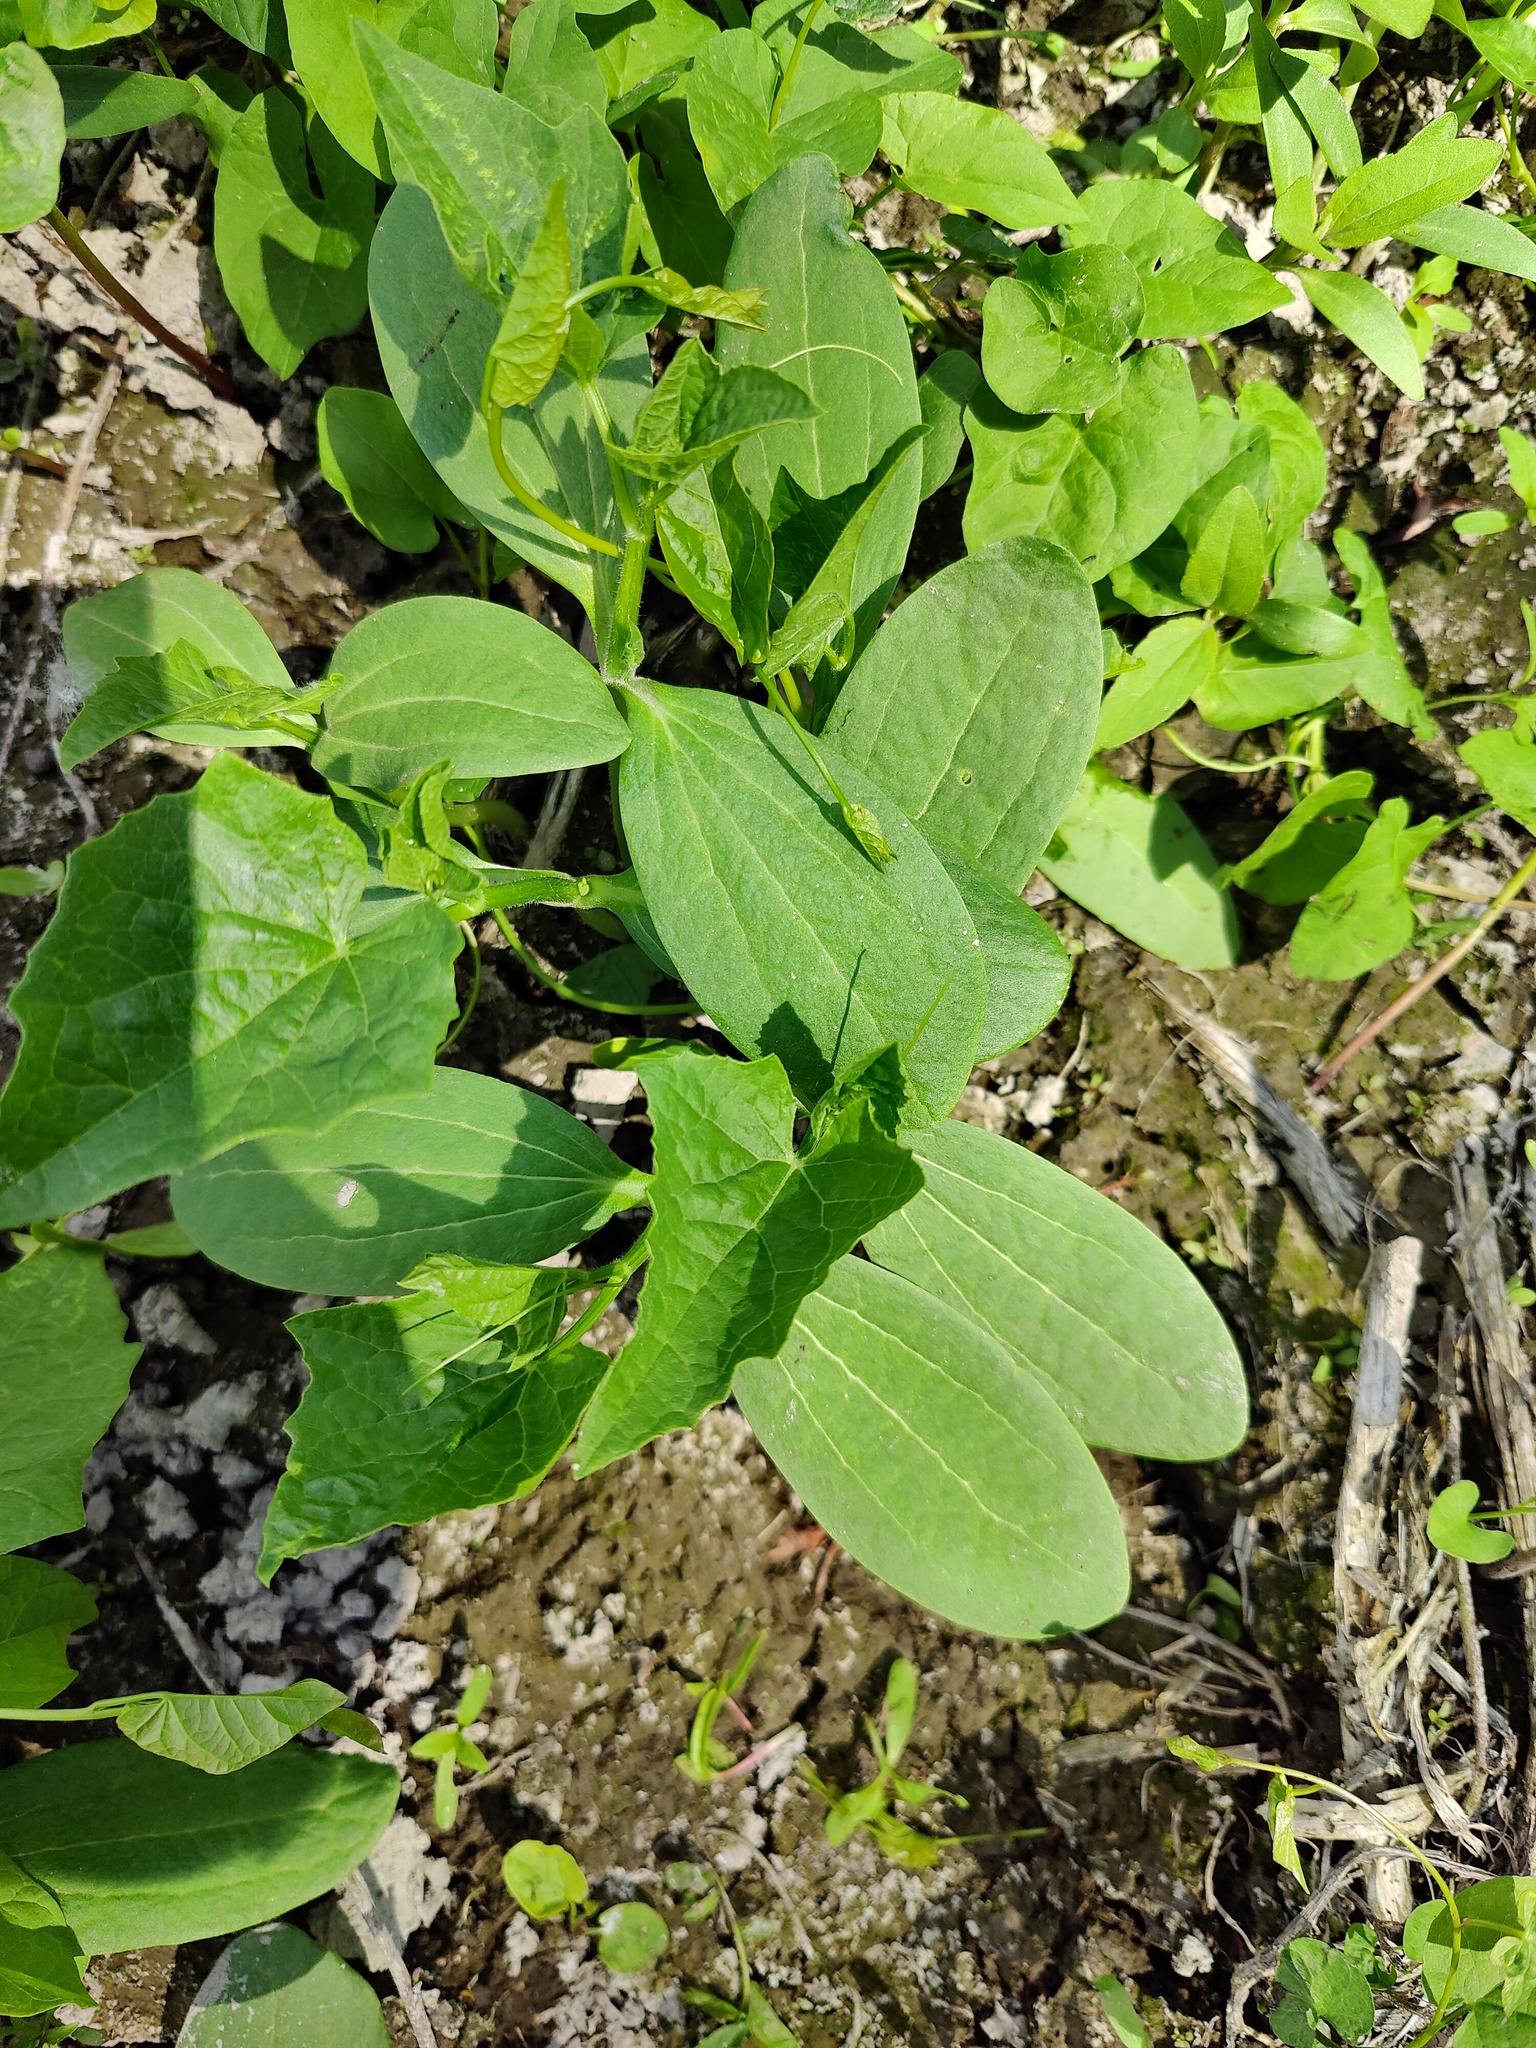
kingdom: Plantae
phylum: Tracheophyta
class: Magnoliopsida
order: Cucurbitales
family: Cucurbitaceae
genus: Echinocystis
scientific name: Echinocystis lobata
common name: Wild cucumber
